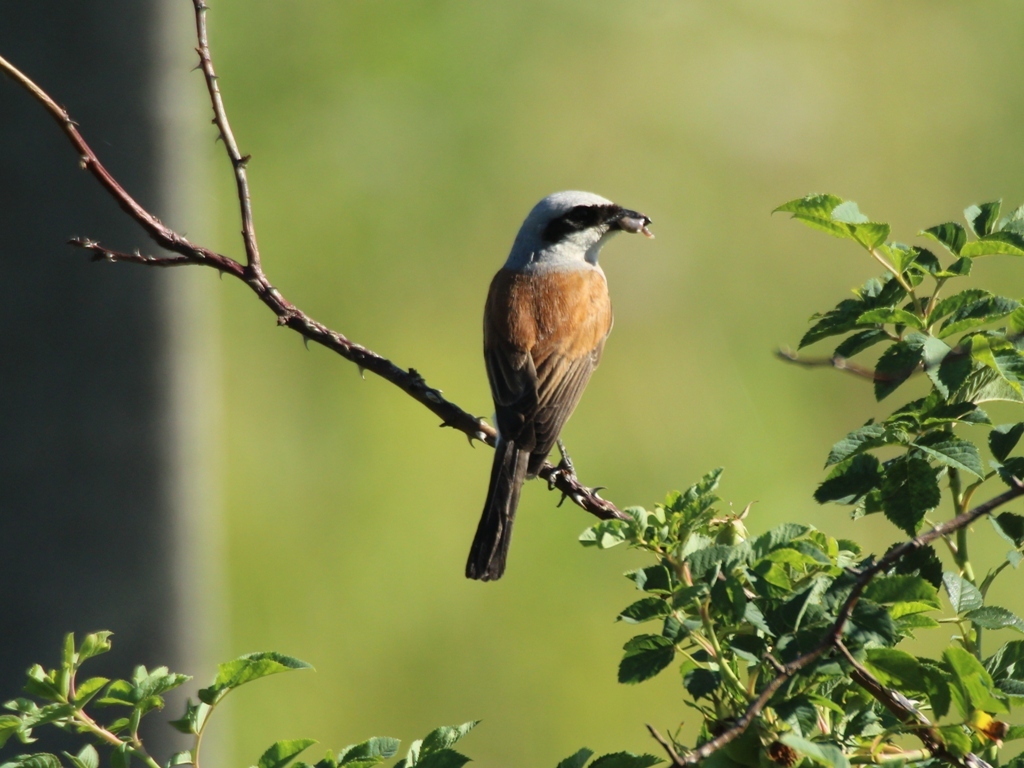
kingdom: Animalia
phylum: Chordata
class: Aves
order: Passeriformes
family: Laniidae
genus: Lanius
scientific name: Lanius collurio
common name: Red-backed shrike
